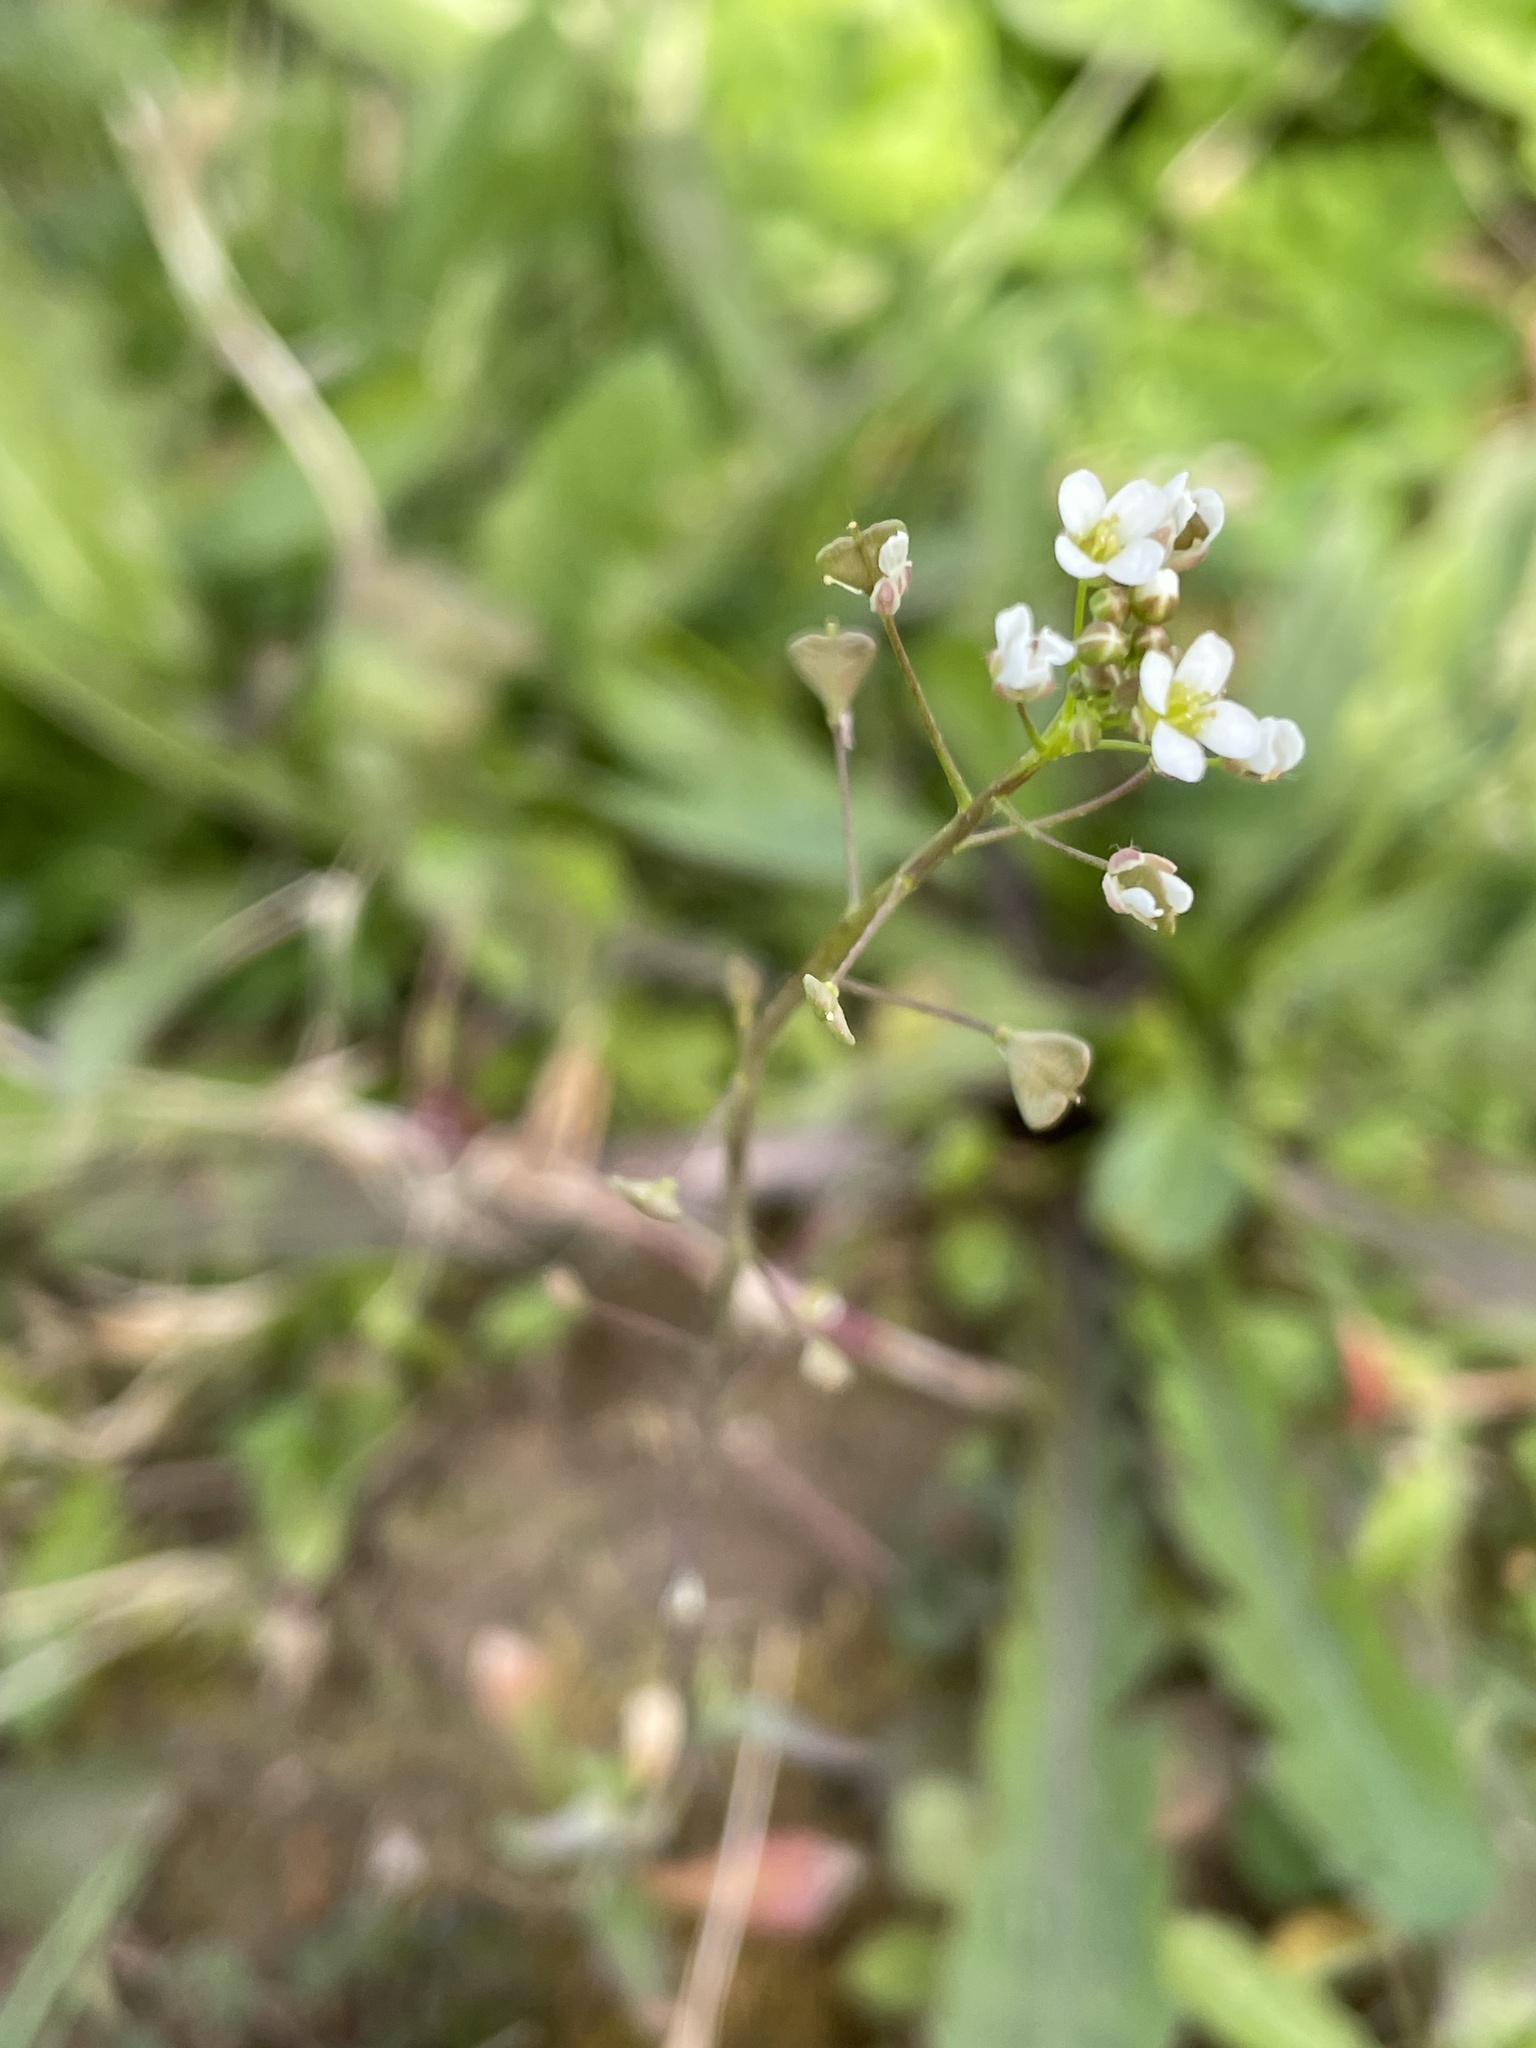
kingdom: Plantae
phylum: Tracheophyta
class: Magnoliopsida
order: Brassicales
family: Brassicaceae
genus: Capsella
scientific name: Capsella bursa-pastoris
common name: Shepherd's purse
